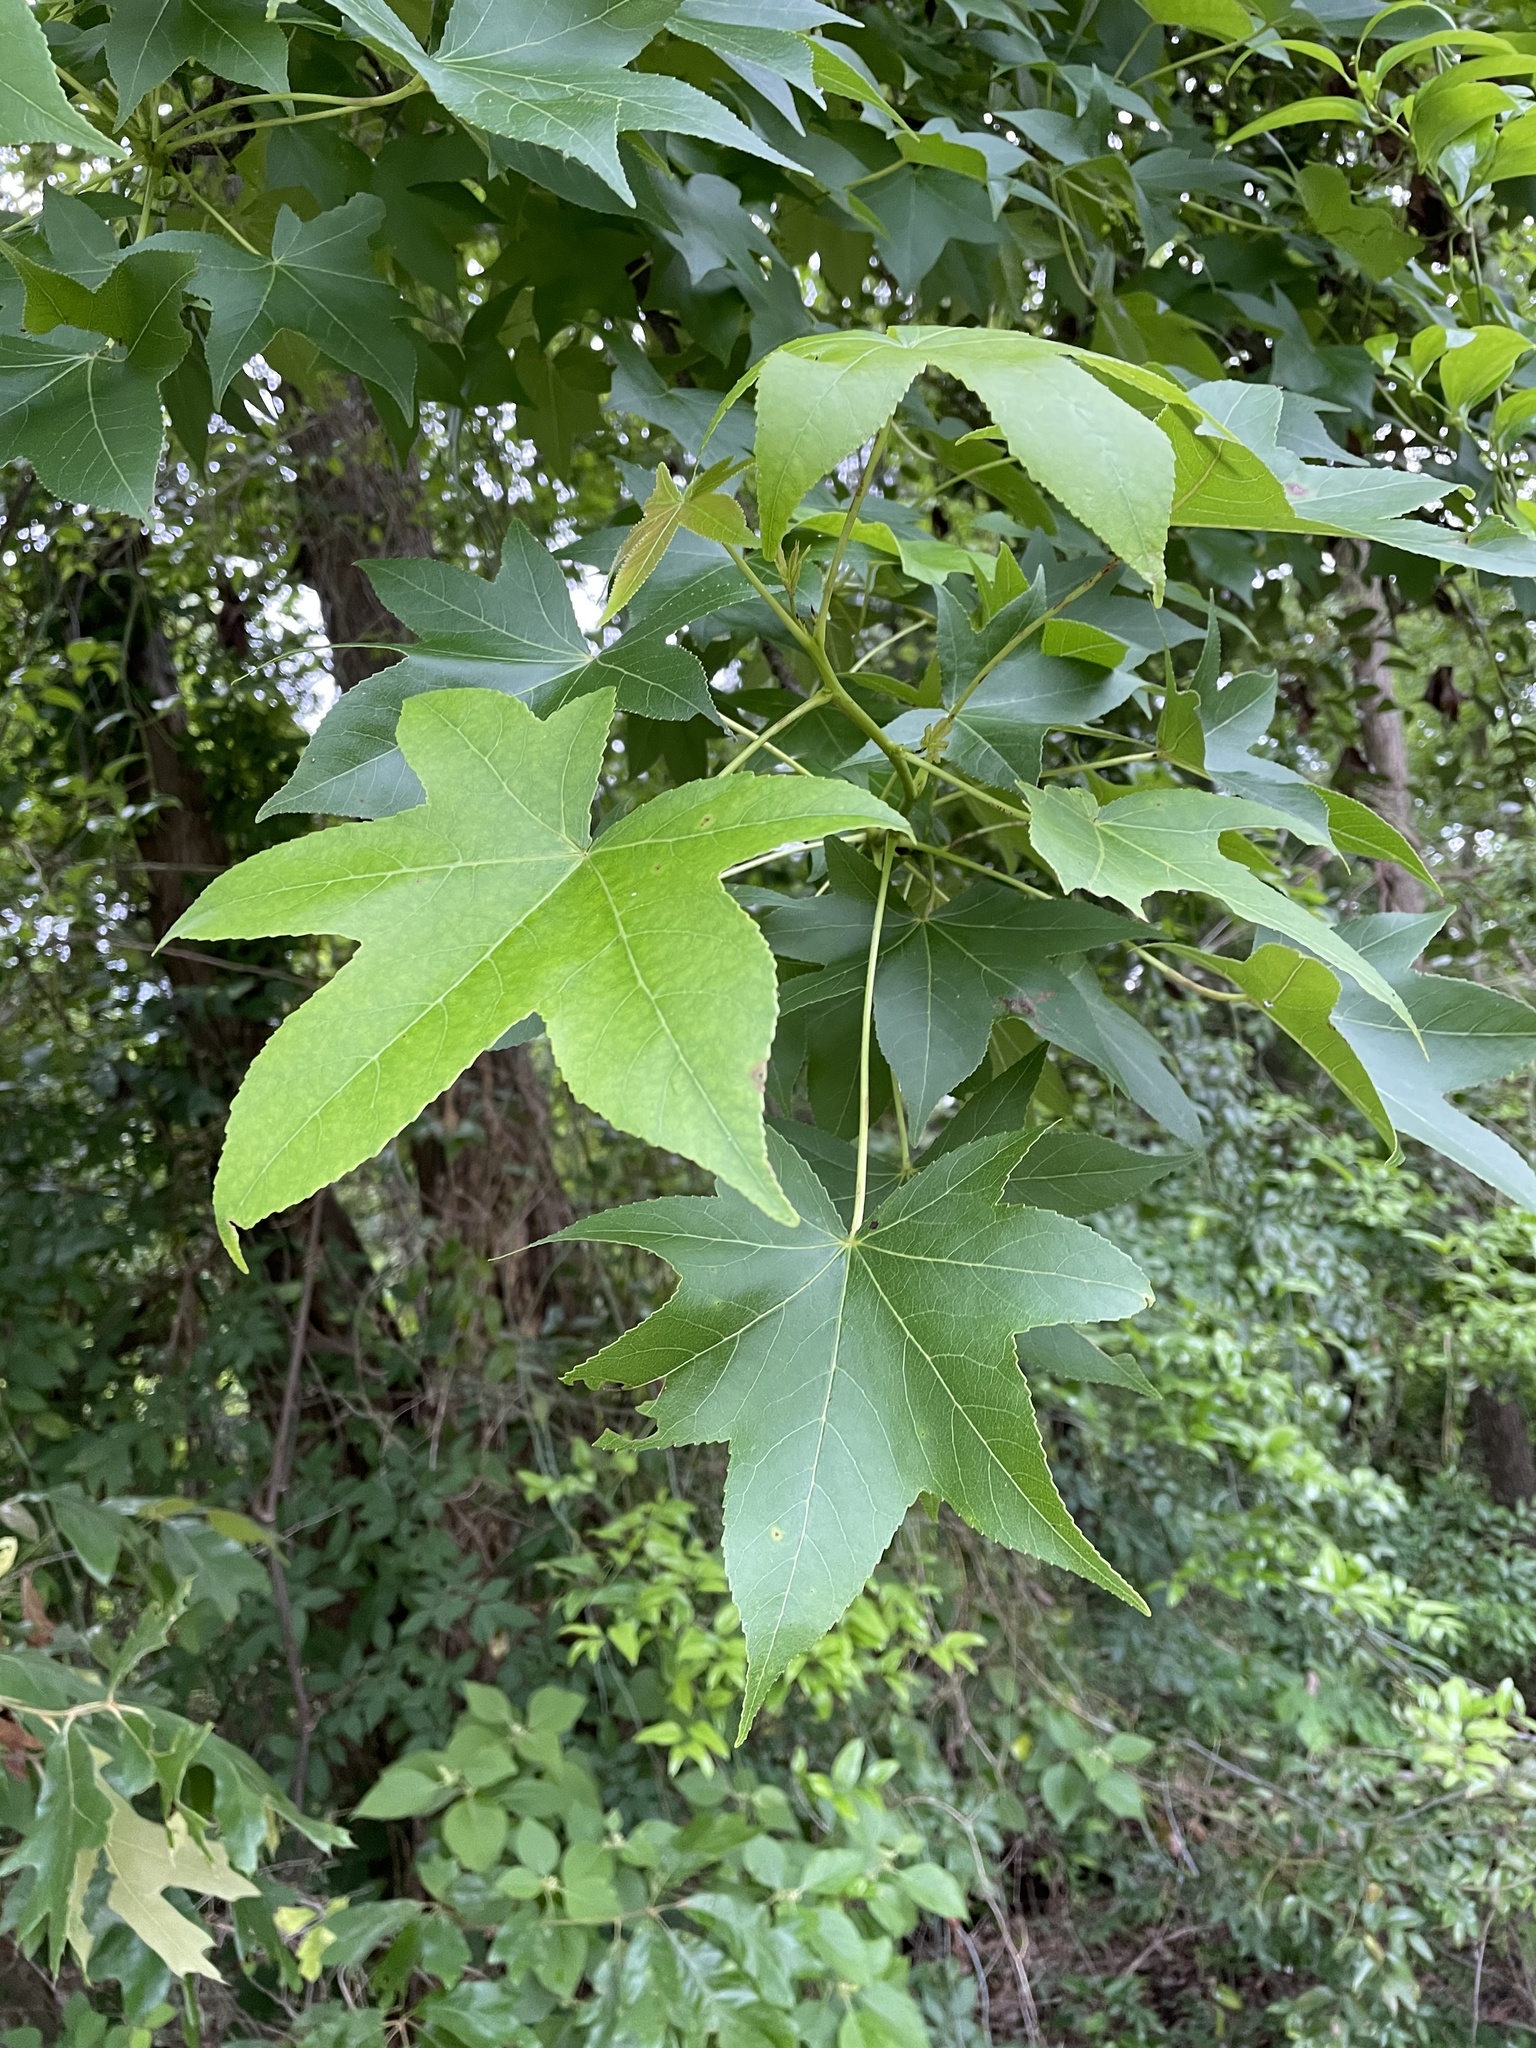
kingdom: Plantae
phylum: Tracheophyta
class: Magnoliopsida
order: Saxifragales
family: Altingiaceae
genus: Liquidambar
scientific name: Liquidambar styraciflua
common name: Sweet gum
